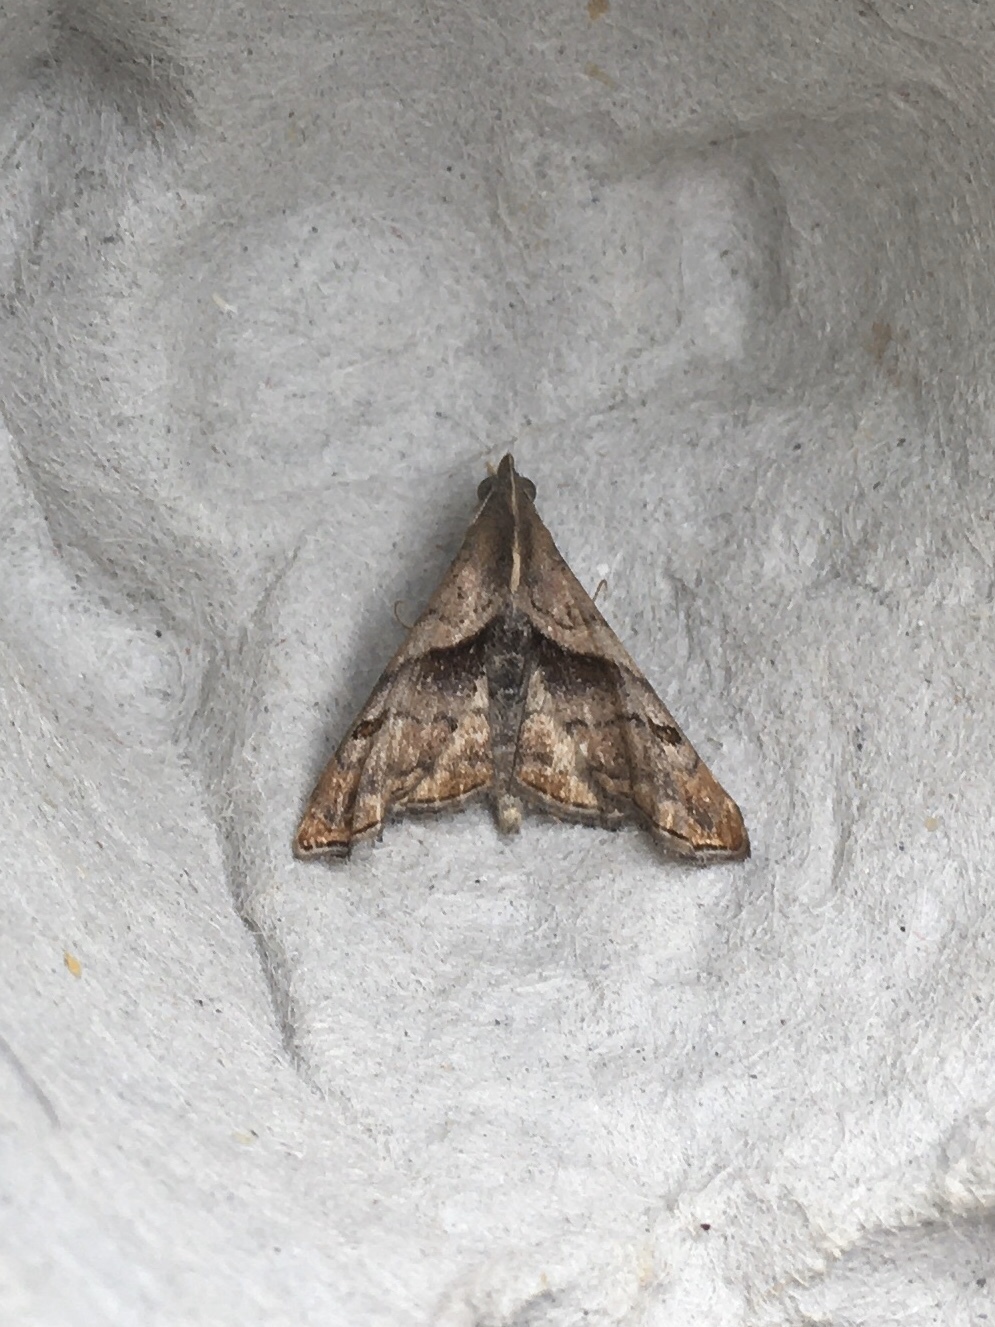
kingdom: Animalia
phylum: Arthropoda
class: Insecta
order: Lepidoptera
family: Erebidae
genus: Palthis
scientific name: Palthis angulalis
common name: Dark-spotted palthis moth
